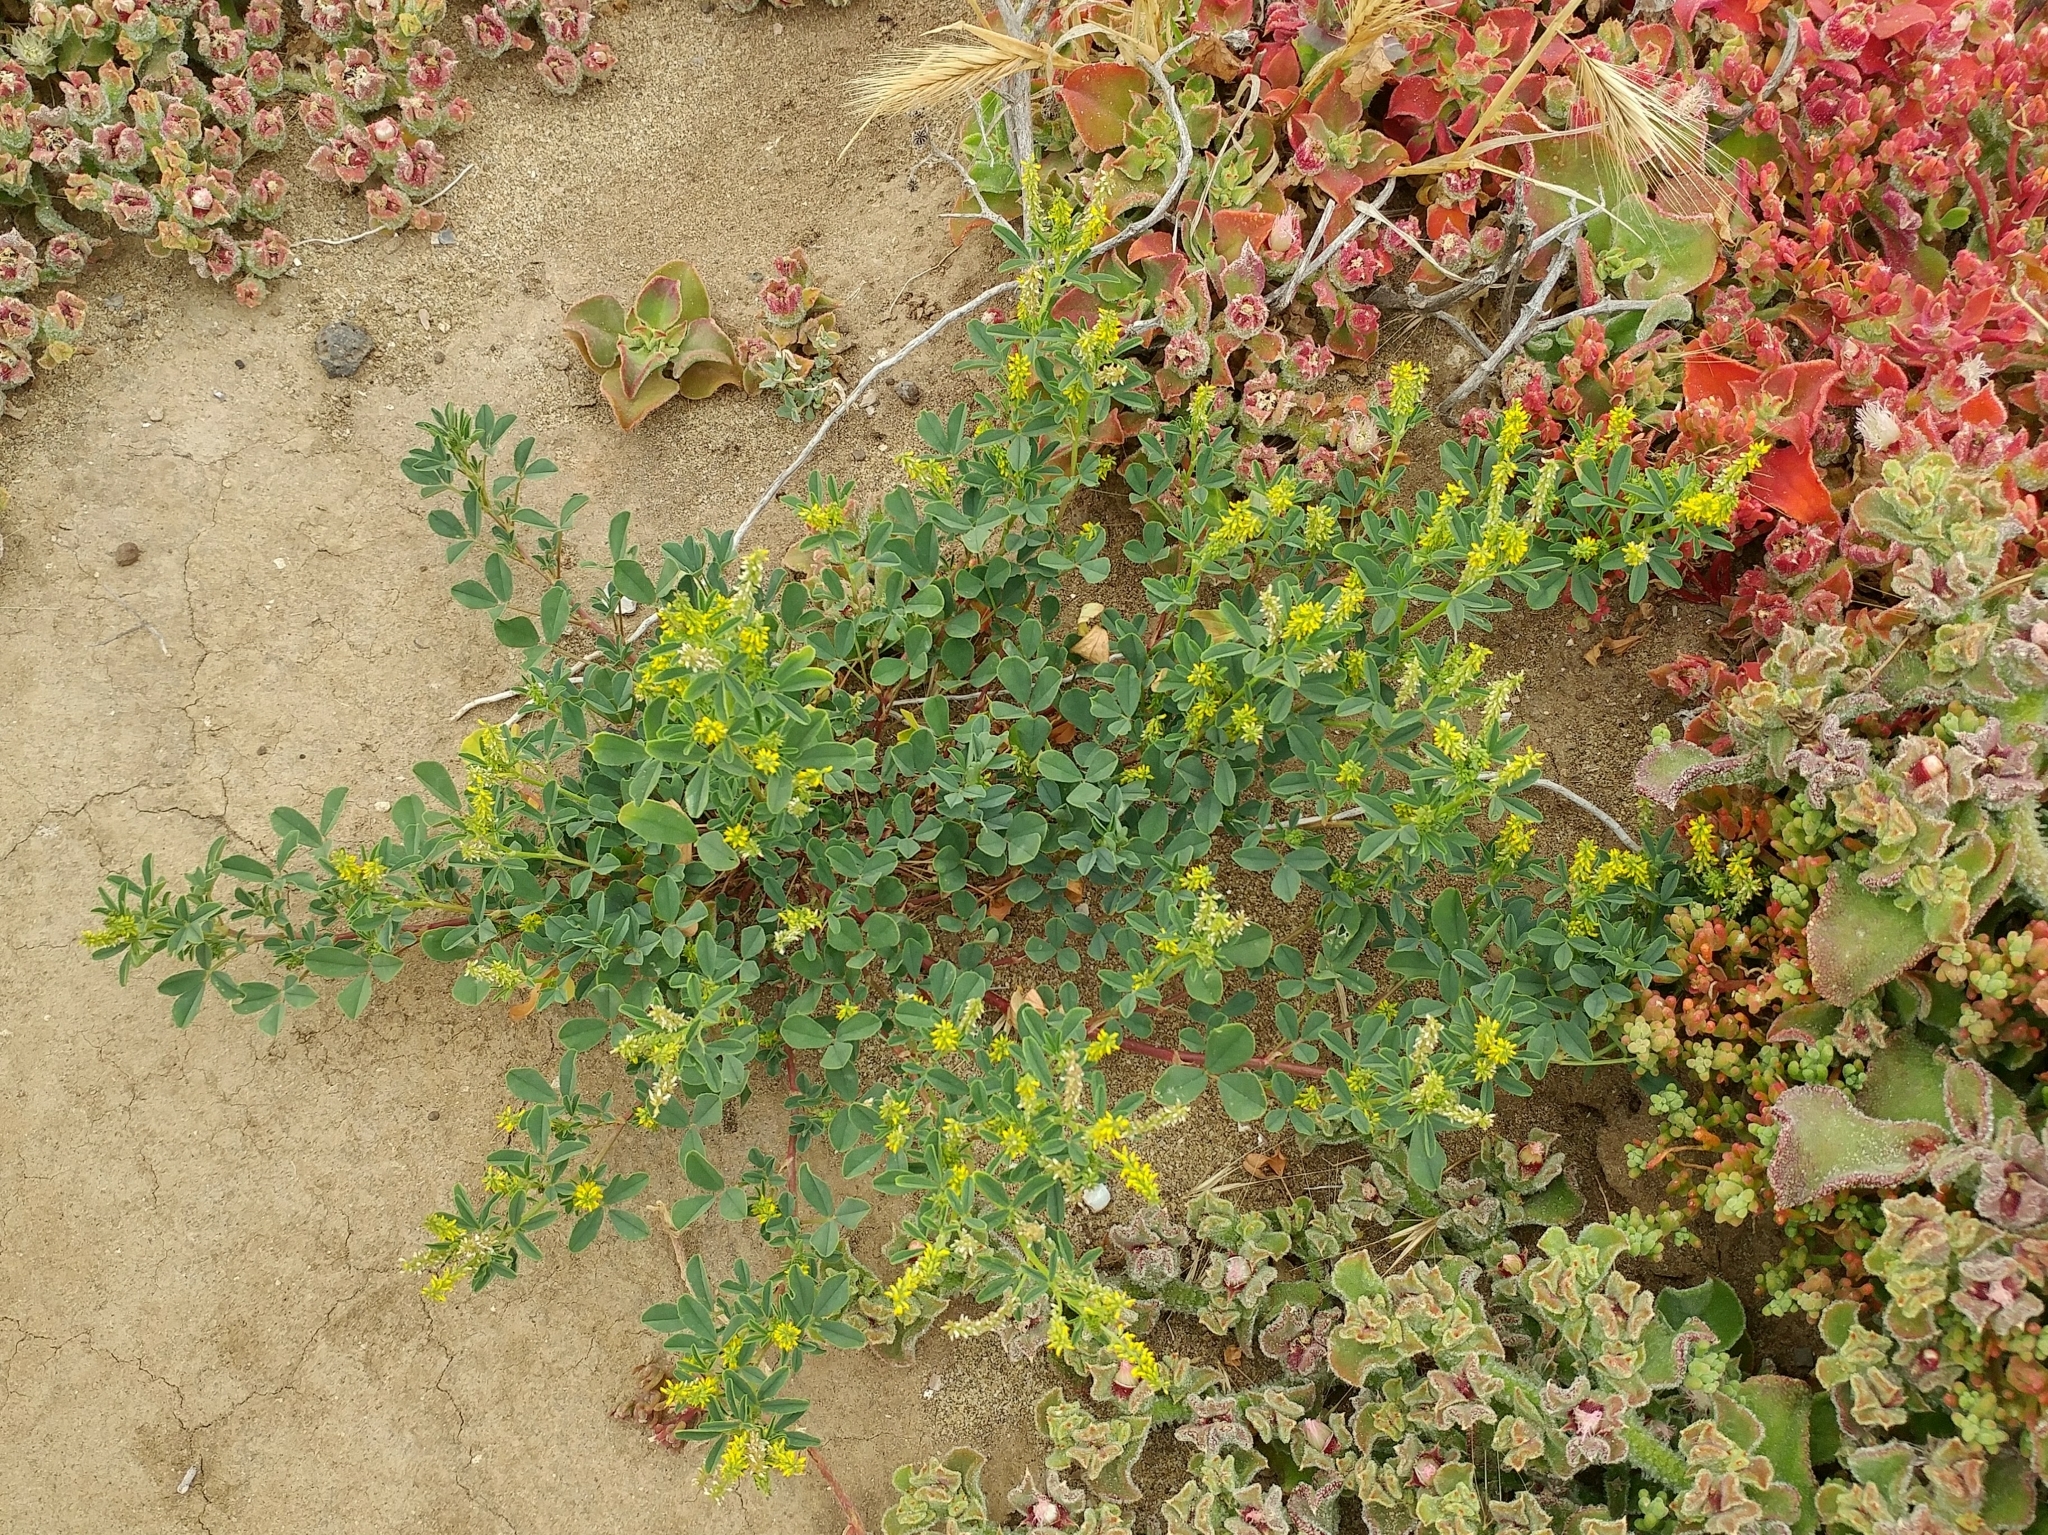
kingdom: Plantae
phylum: Tracheophyta
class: Magnoliopsida
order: Fabales
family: Fabaceae
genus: Melilotus
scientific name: Melilotus indicus
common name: Small melilot
